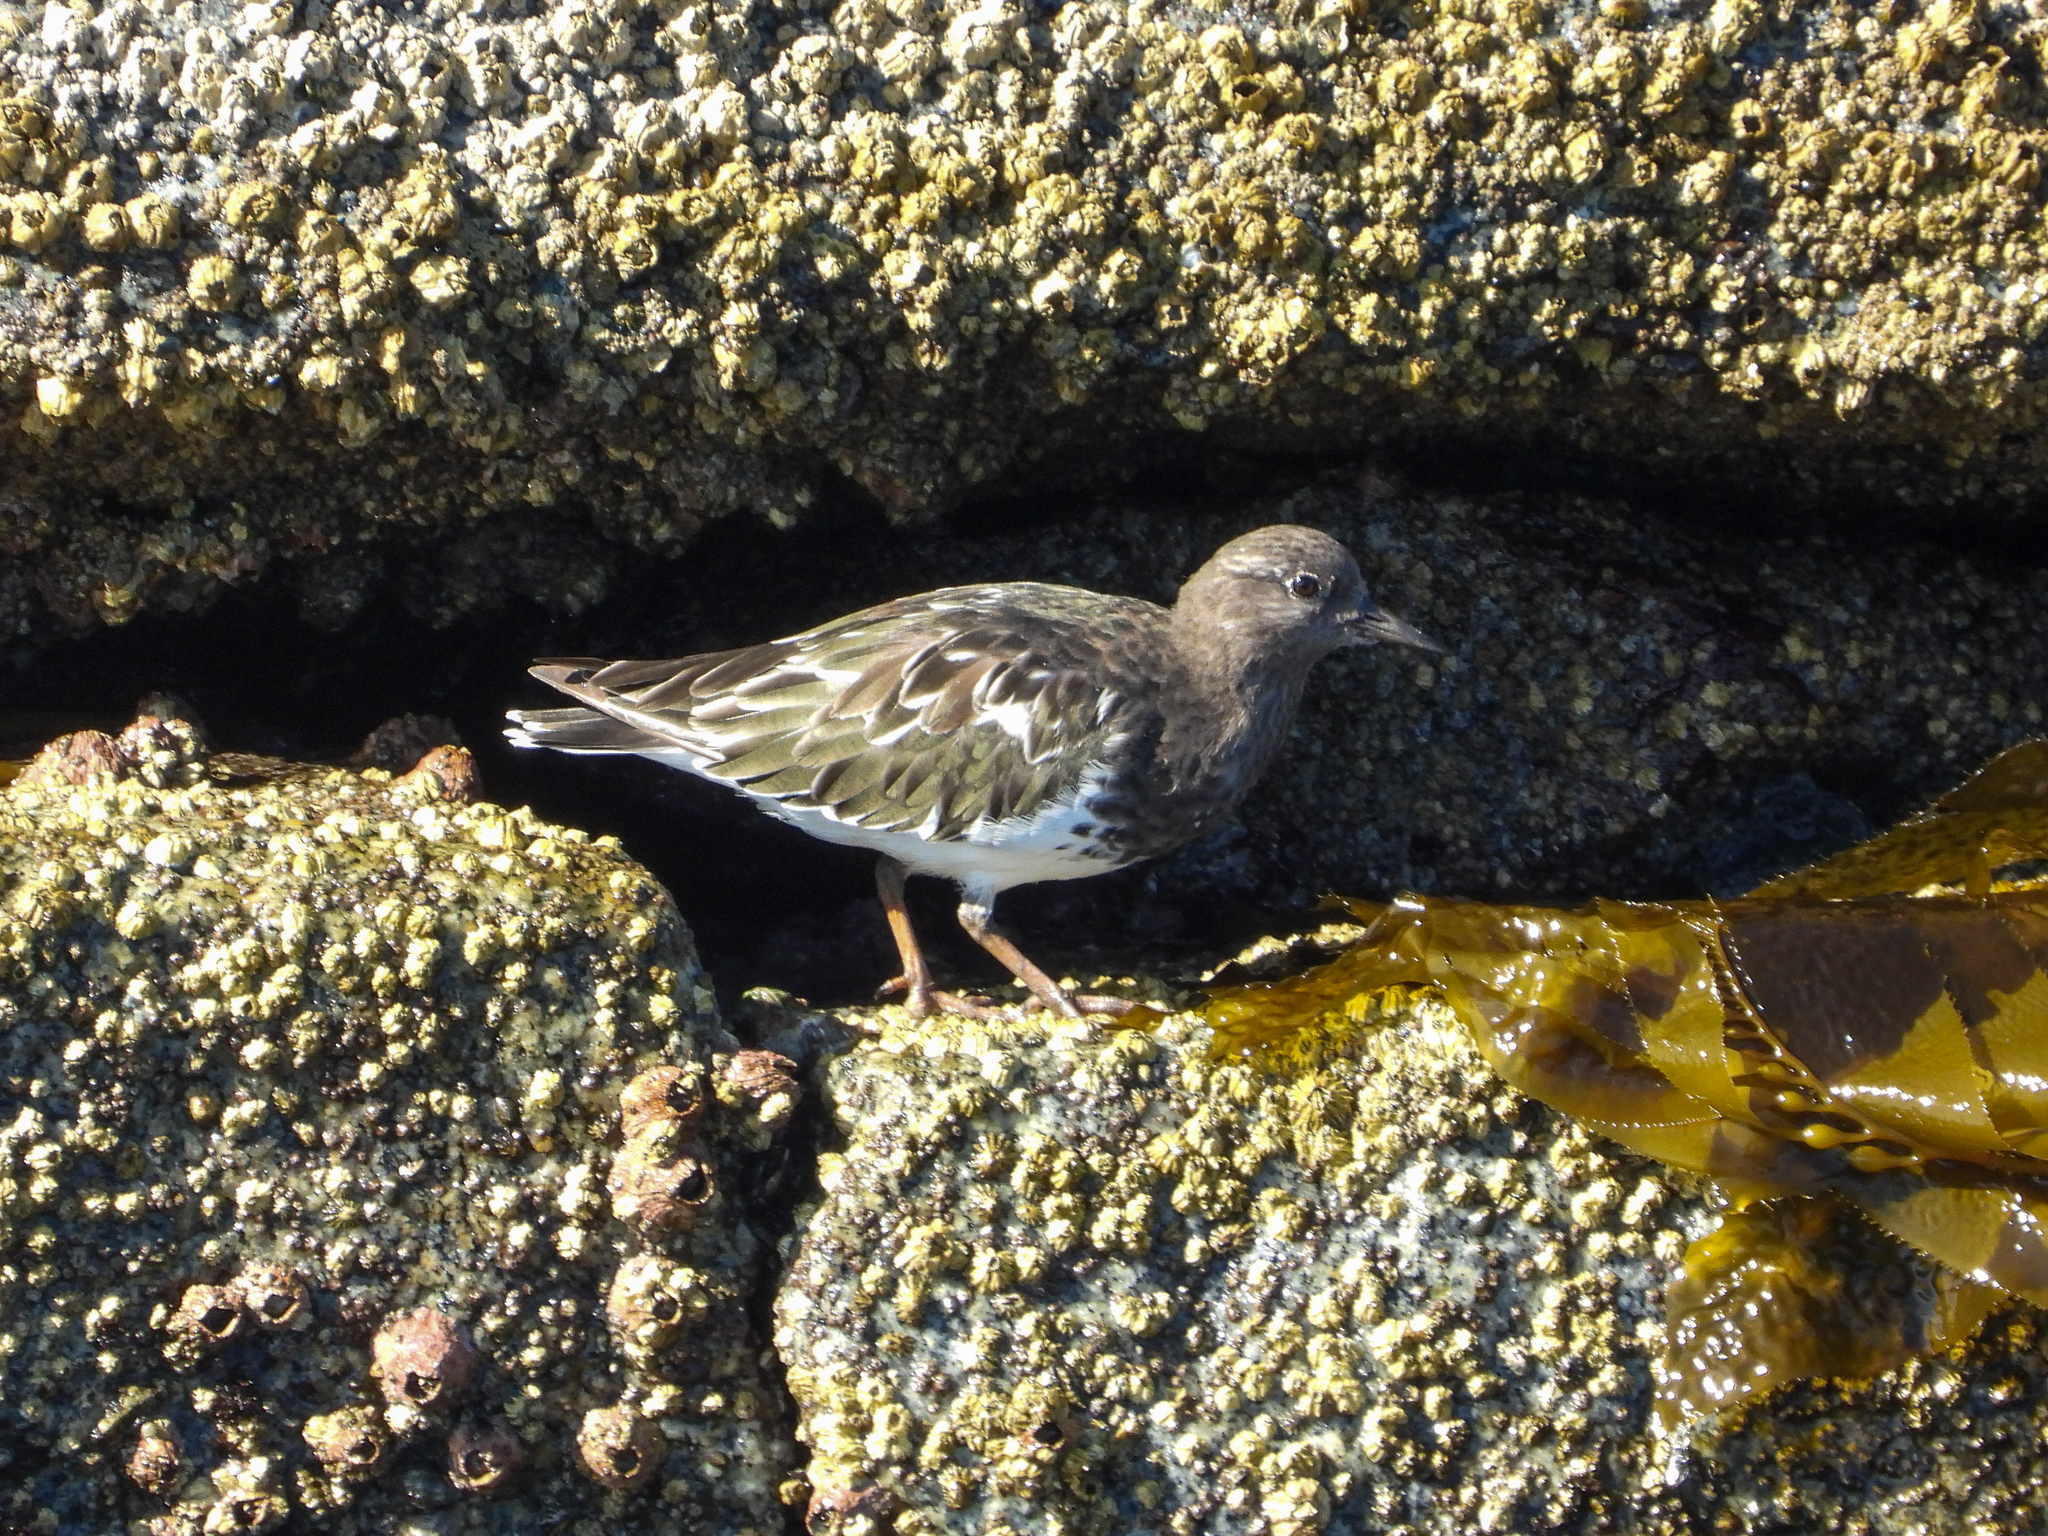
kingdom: Animalia
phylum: Chordata
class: Aves
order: Charadriiformes
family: Scolopacidae
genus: Arenaria
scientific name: Arenaria melanocephala
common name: Black turnstone
